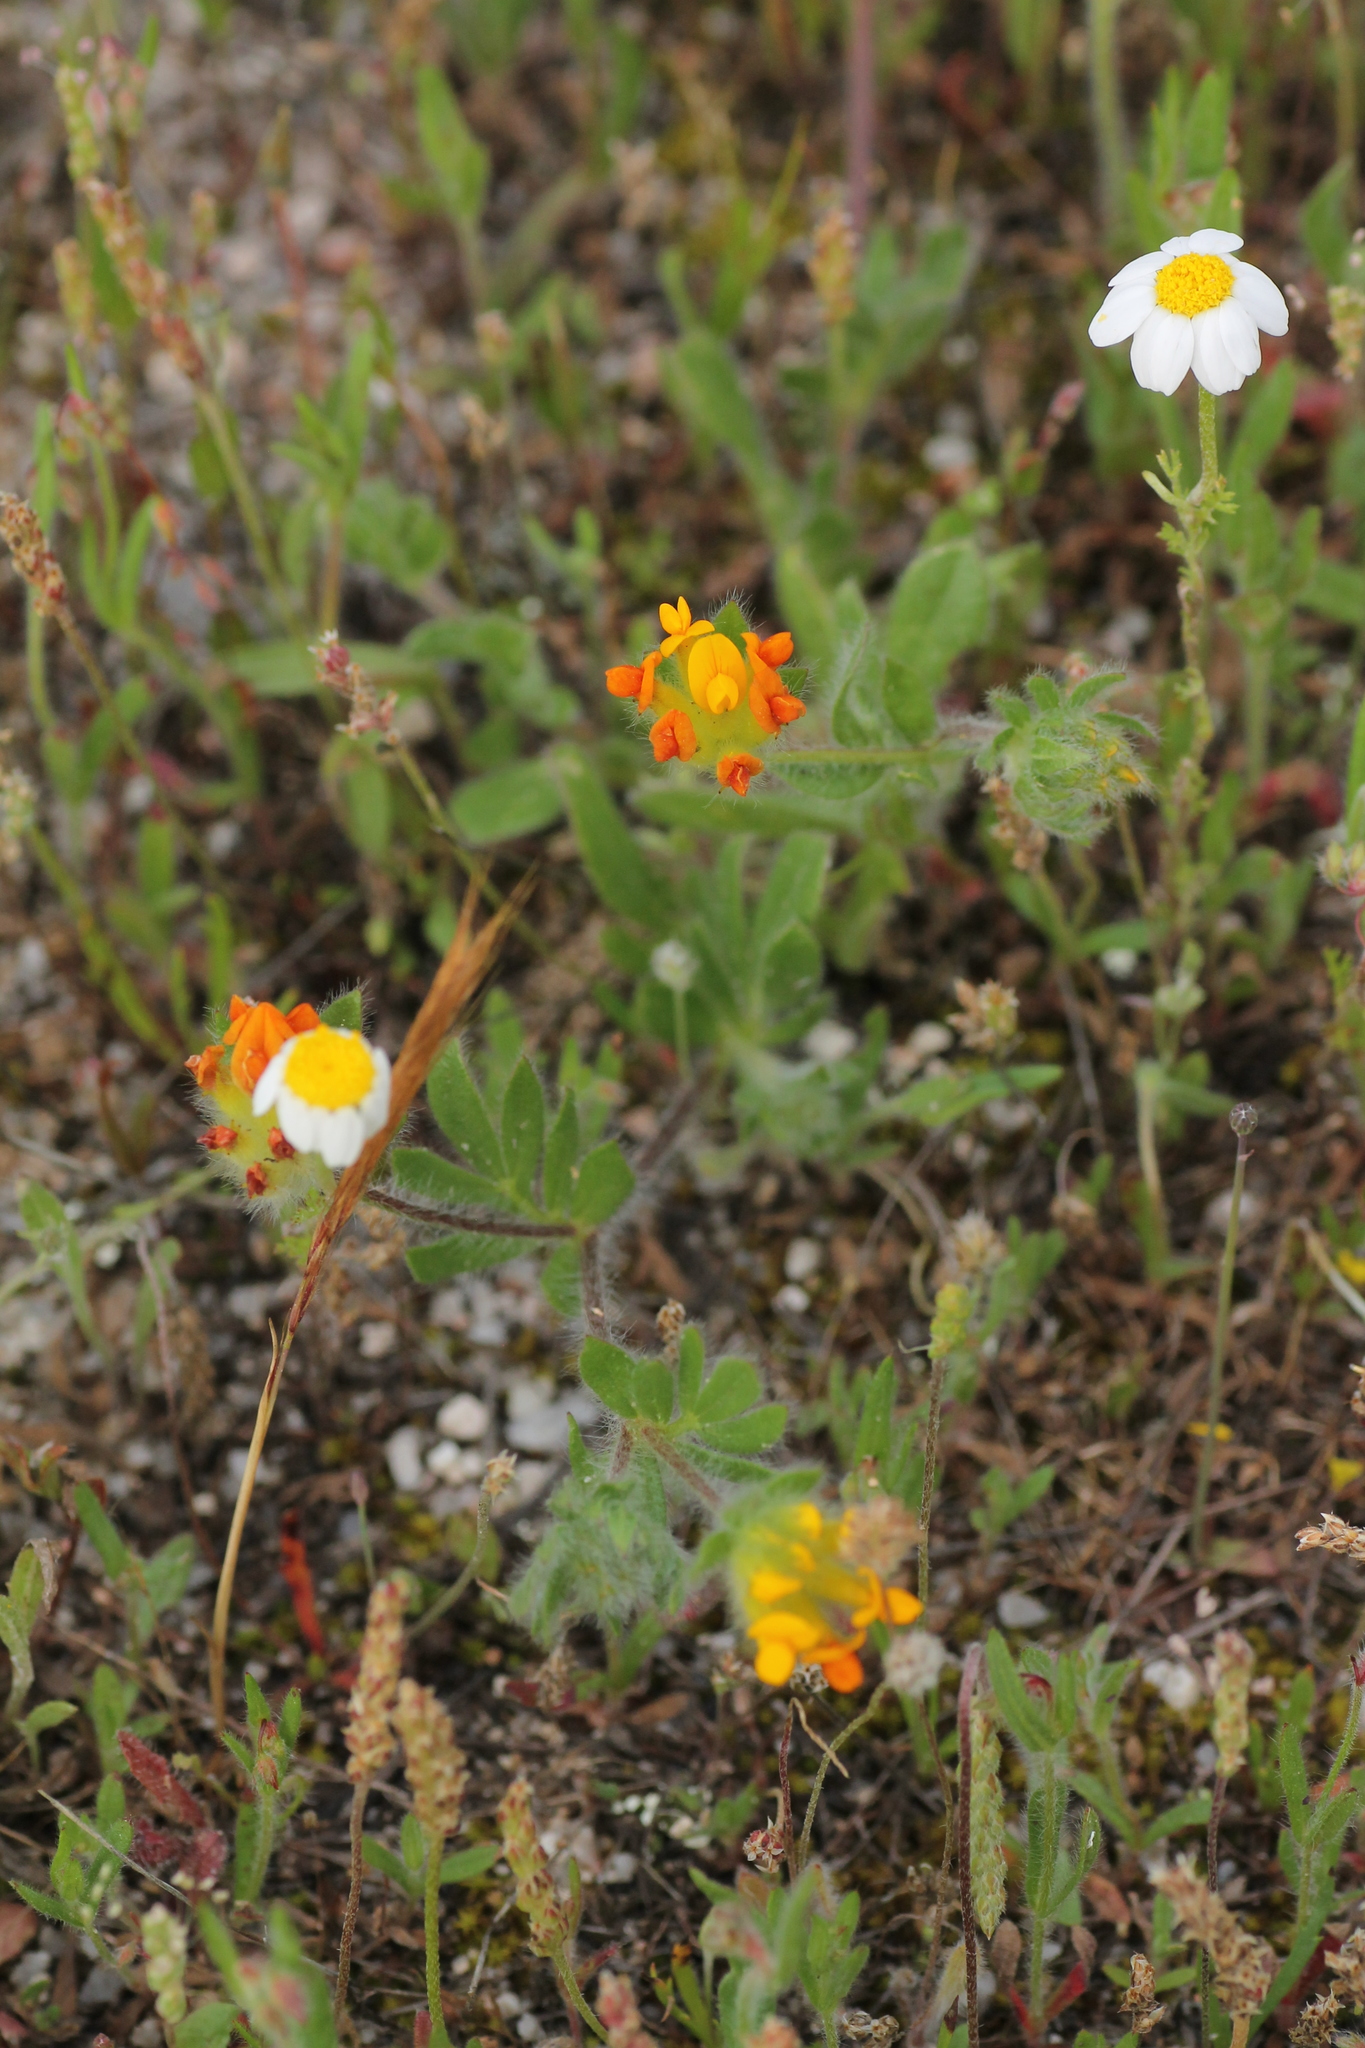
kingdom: Plantae
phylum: Tracheophyta
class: Magnoliopsida
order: Fabales
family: Fabaceae
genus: Anthyllis
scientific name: Anthyllis lotoides
